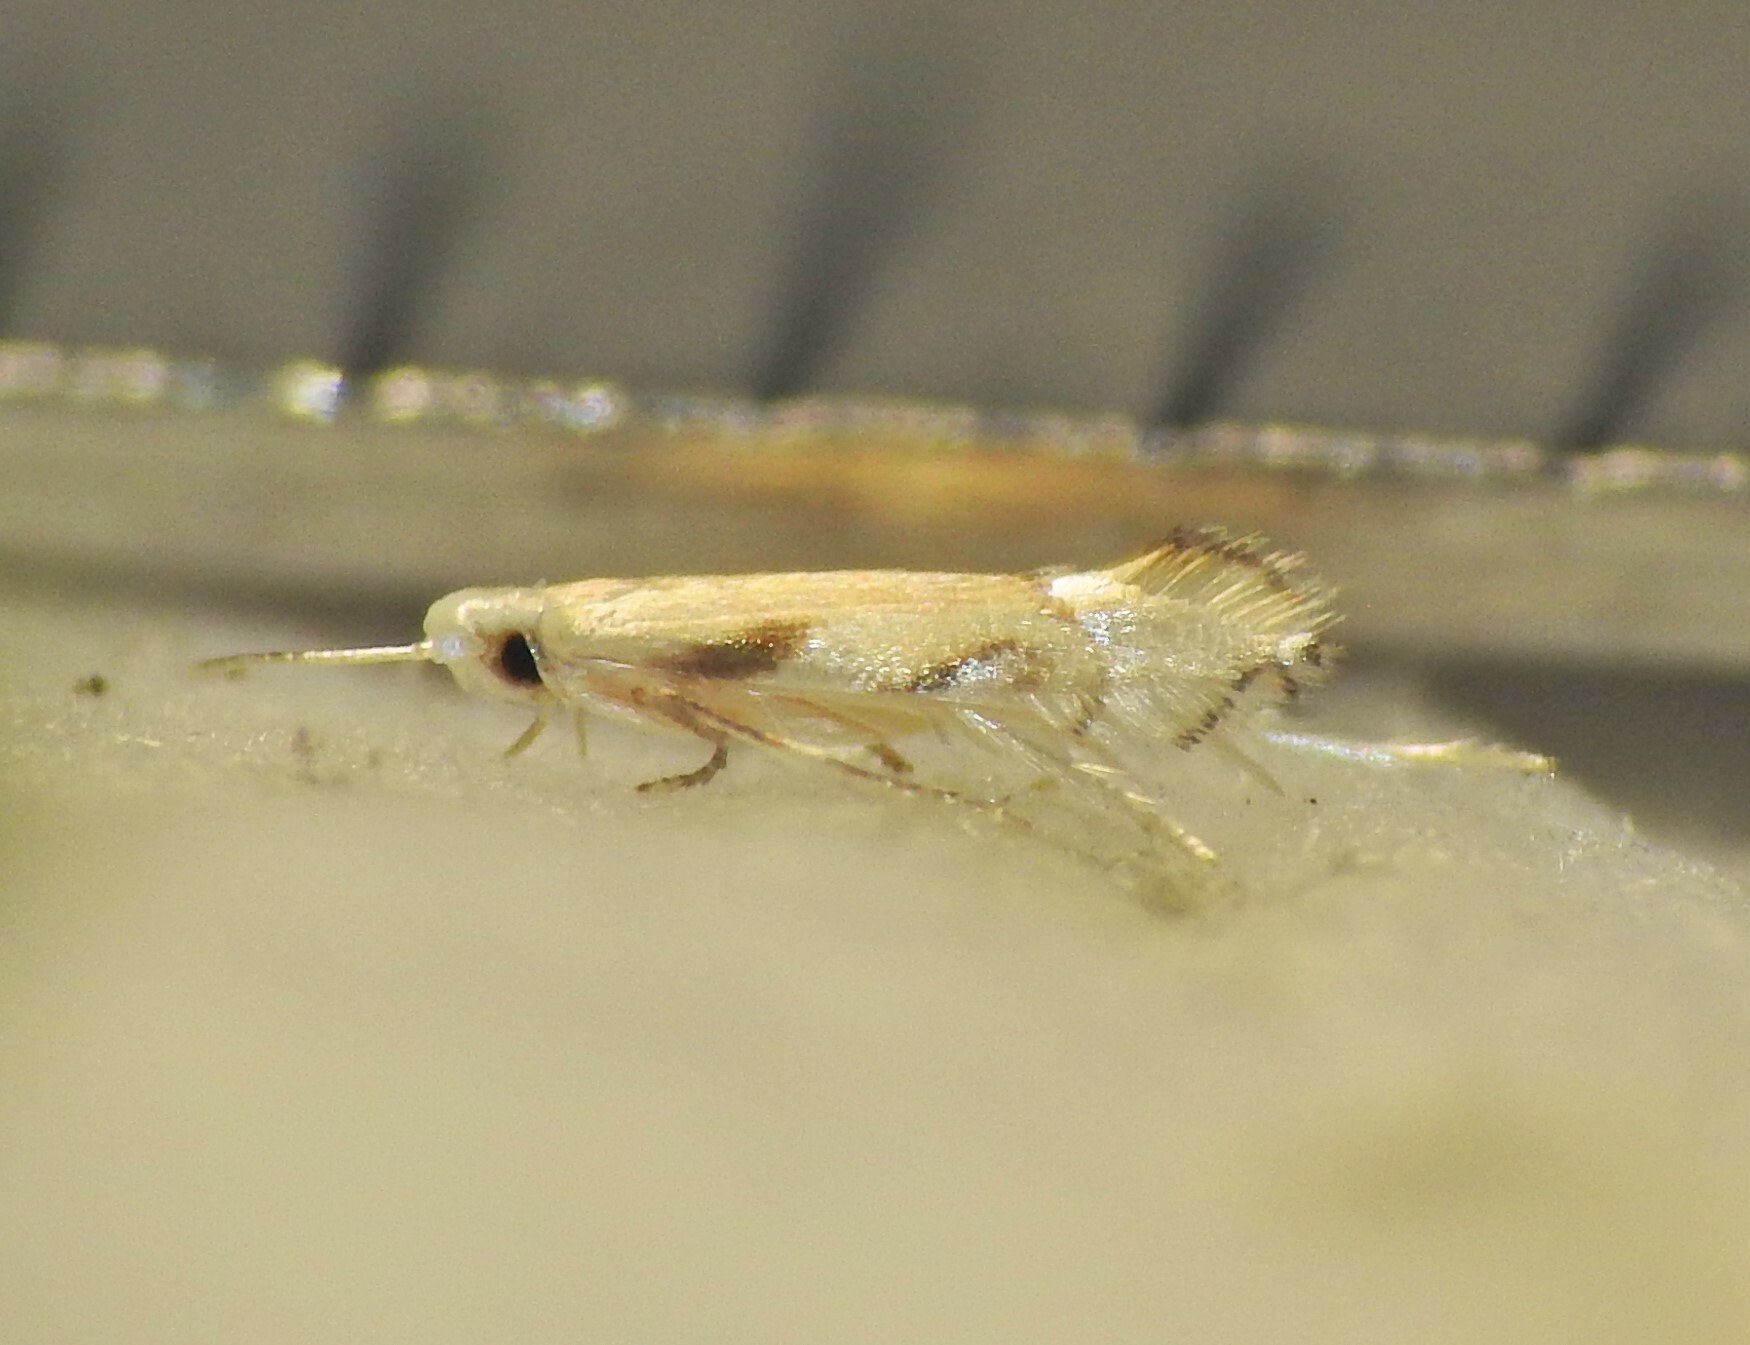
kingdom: Animalia
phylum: Arthropoda
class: Insecta
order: Lepidoptera
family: Gracillariidae
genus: Phyllocnistis
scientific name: Phyllocnistis iodocella
